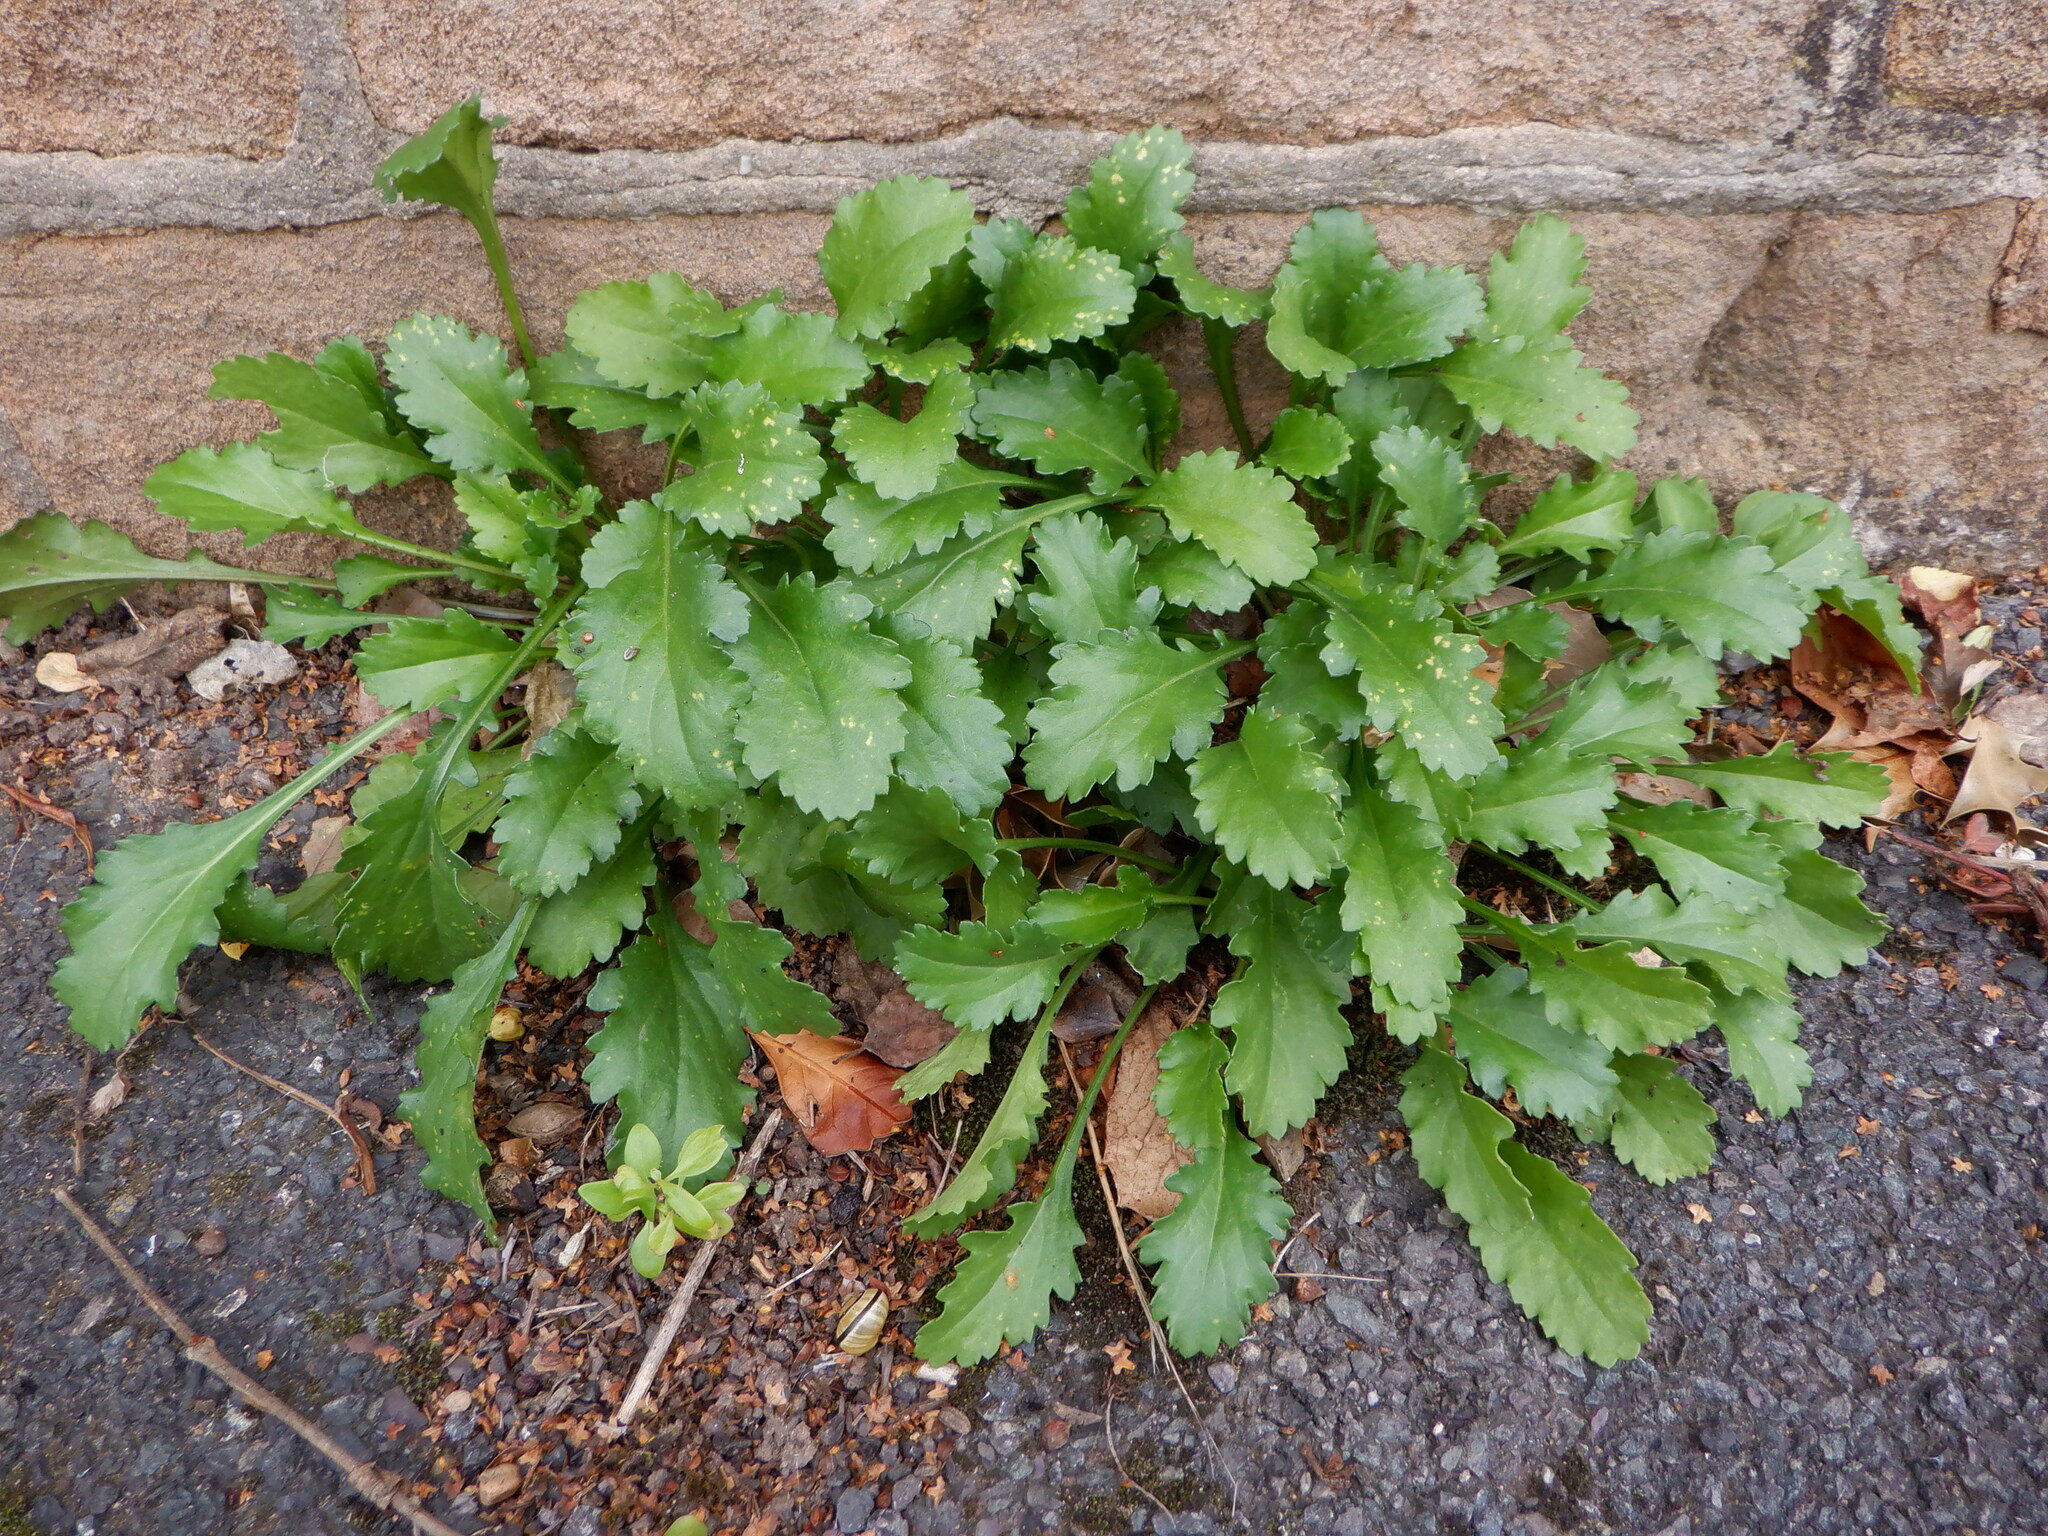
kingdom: Plantae
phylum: Tracheophyta
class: Magnoliopsida
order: Asterales
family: Asteraceae
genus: Leucanthemum
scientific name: Leucanthemum vulgare
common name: Oxeye daisy
